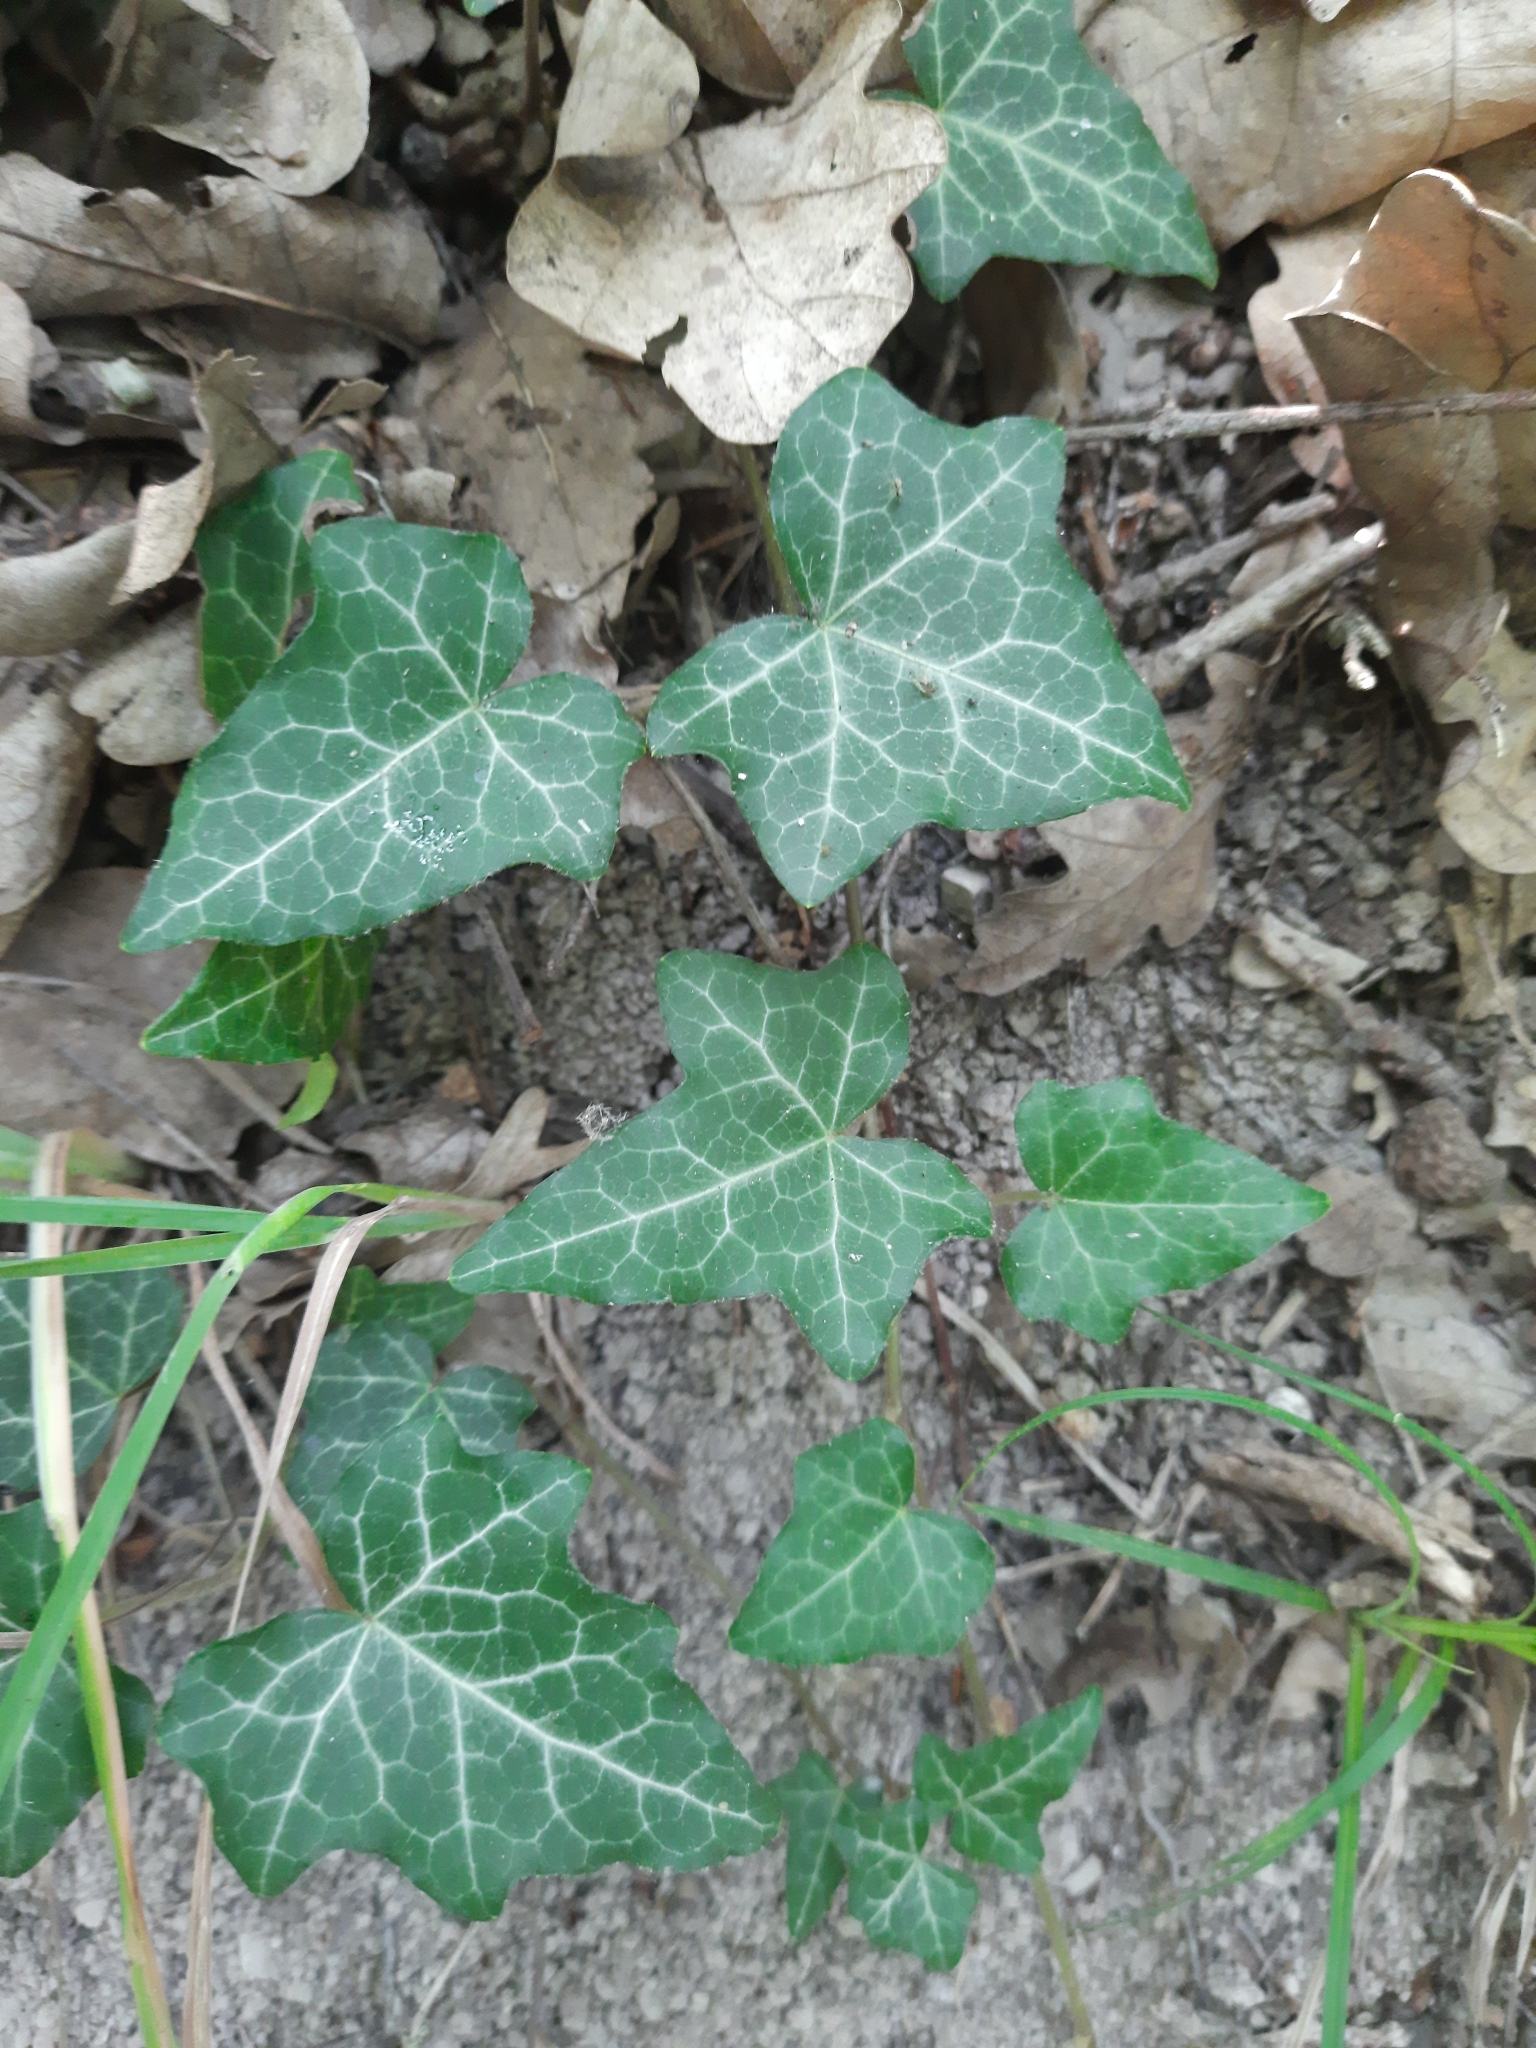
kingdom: Plantae
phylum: Tracheophyta
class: Magnoliopsida
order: Apiales
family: Araliaceae
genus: Hedera
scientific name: Hedera helix
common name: Ivy
